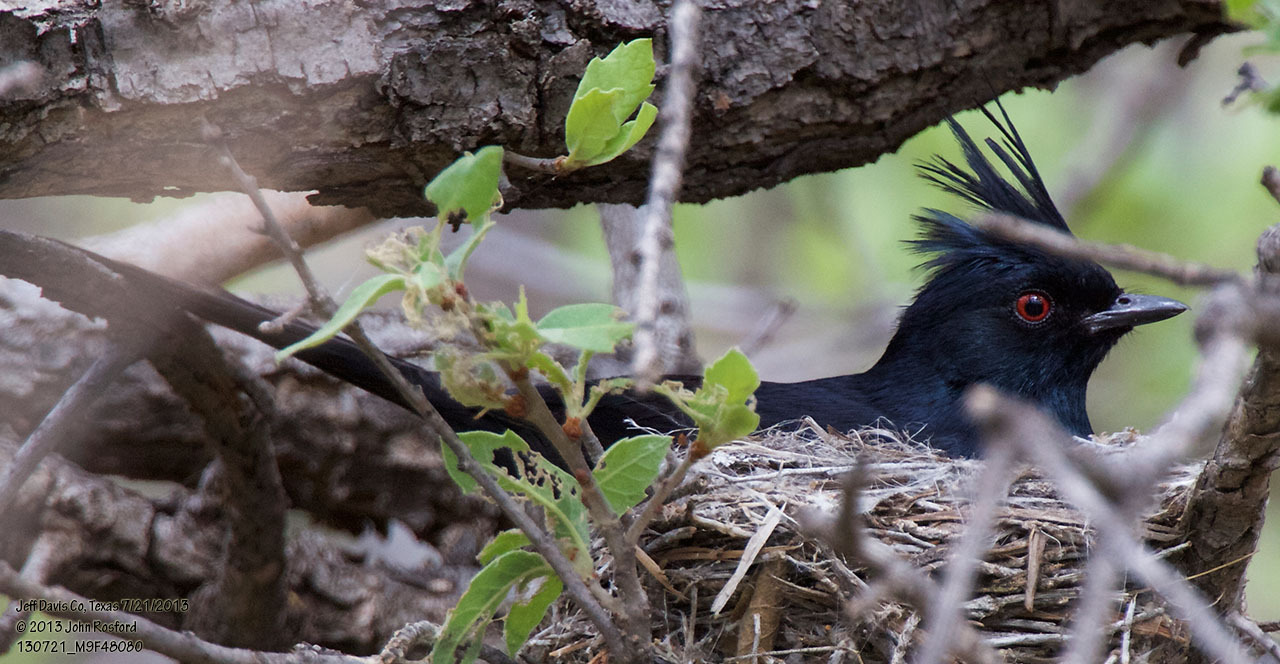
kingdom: Animalia
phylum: Chordata
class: Aves
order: Passeriformes
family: Ptilogonatidae
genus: Phainopepla
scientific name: Phainopepla nitens
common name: Phainopepla
